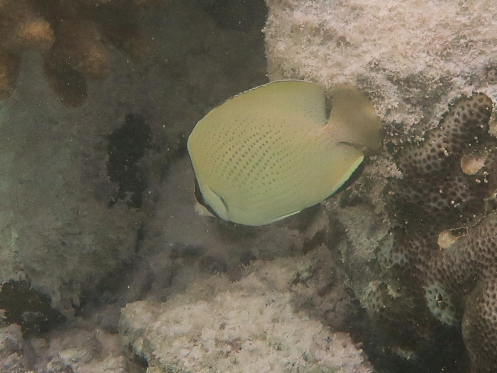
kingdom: Animalia
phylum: Chordata
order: Perciformes
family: Chaetodontidae
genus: Chaetodon
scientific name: Chaetodon citrinellus
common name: Speckled butterflyfish
